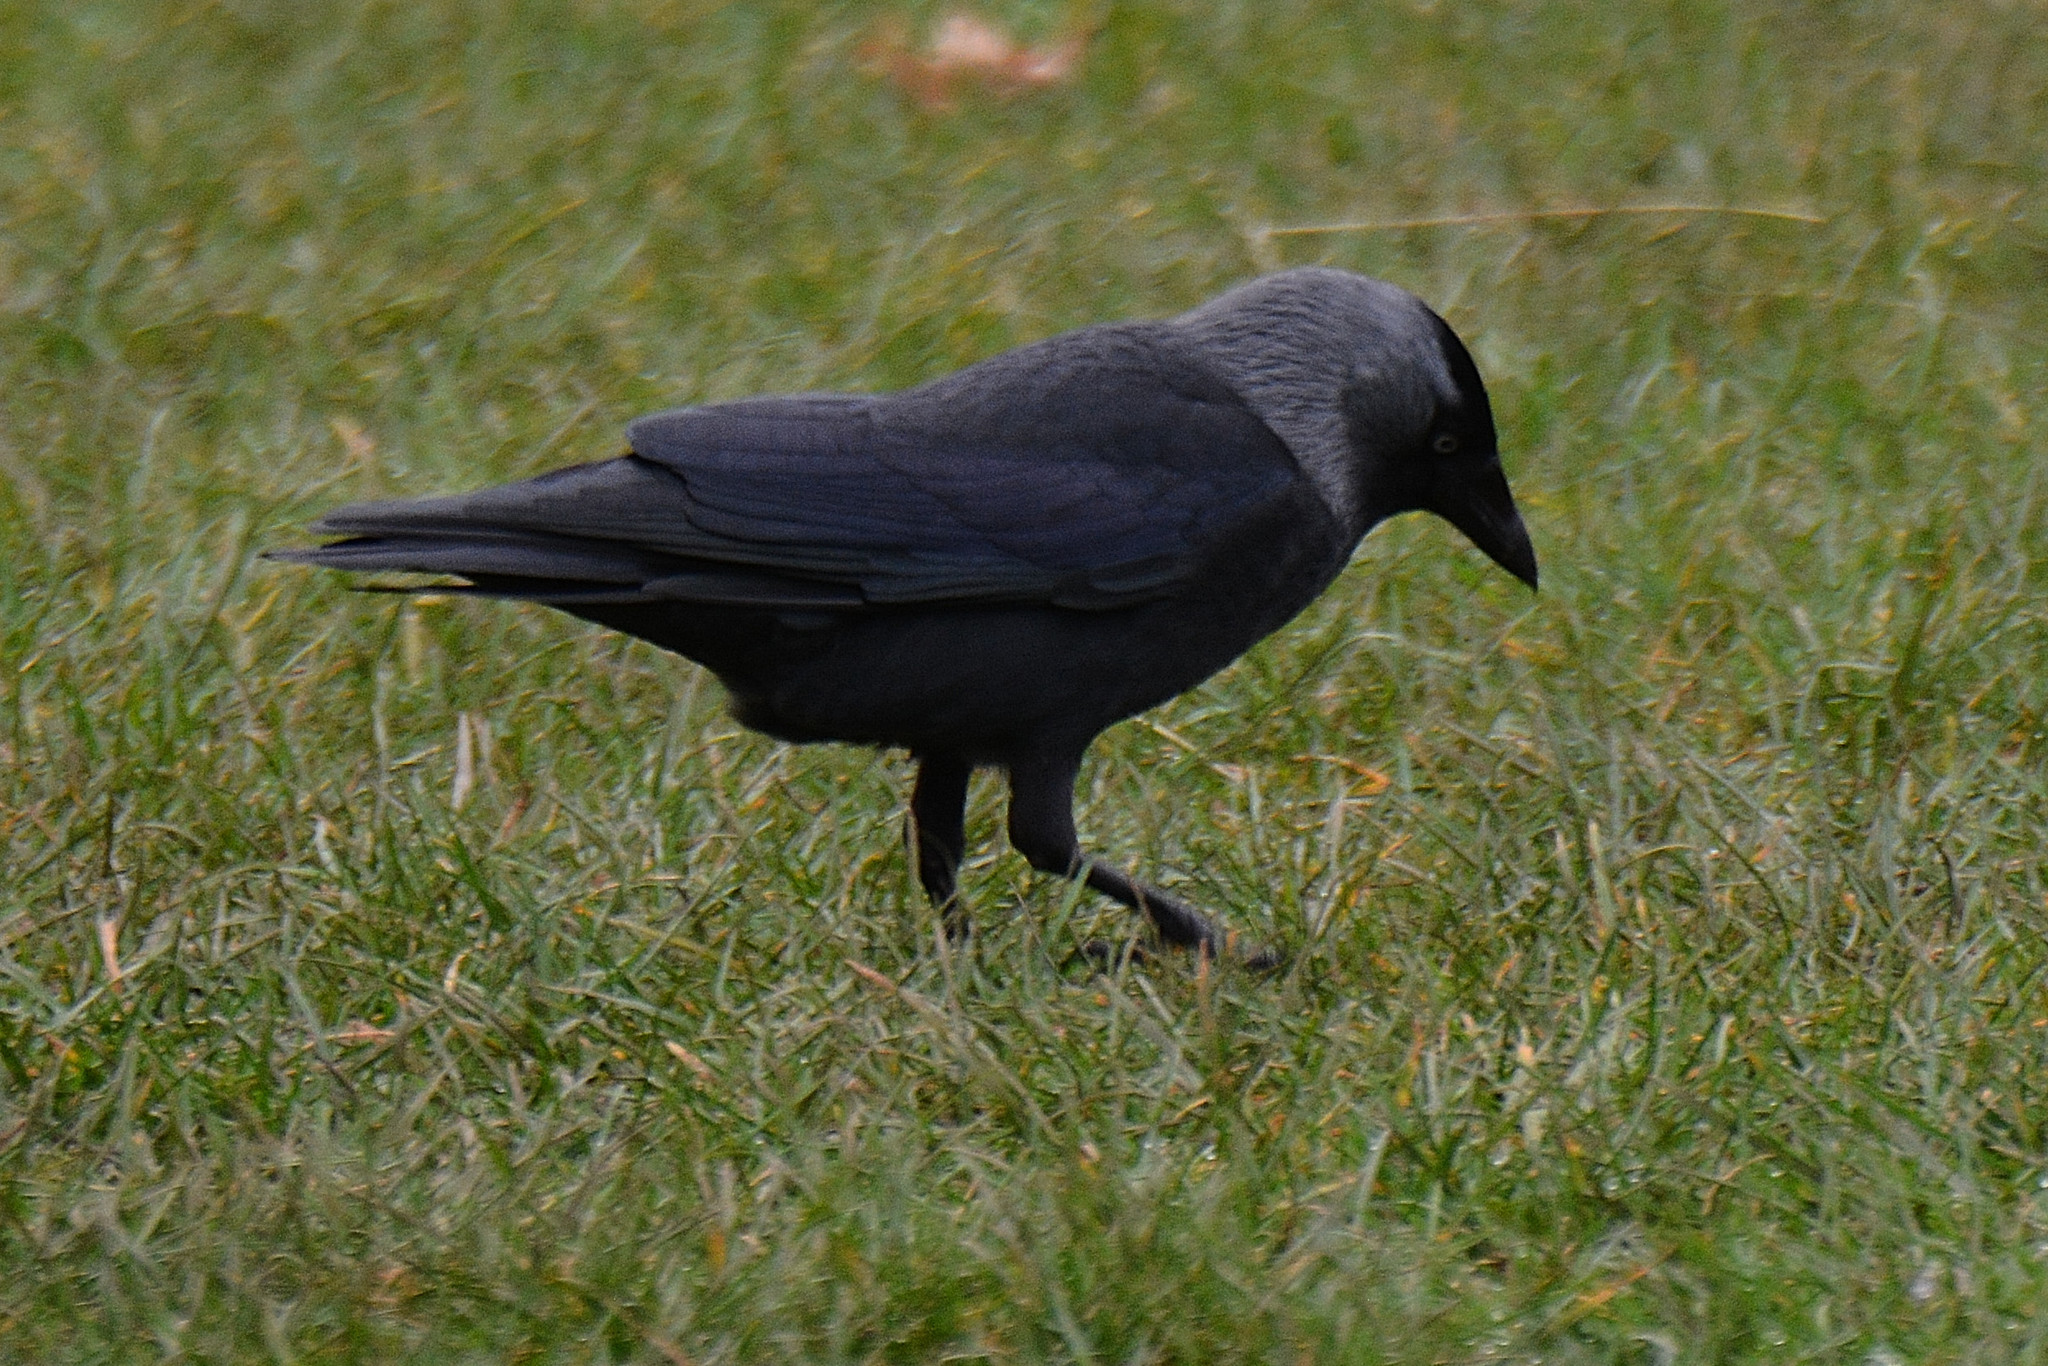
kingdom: Animalia
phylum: Chordata
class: Aves
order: Passeriformes
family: Corvidae
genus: Coloeus
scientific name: Coloeus monedula
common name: Western jackdaw
